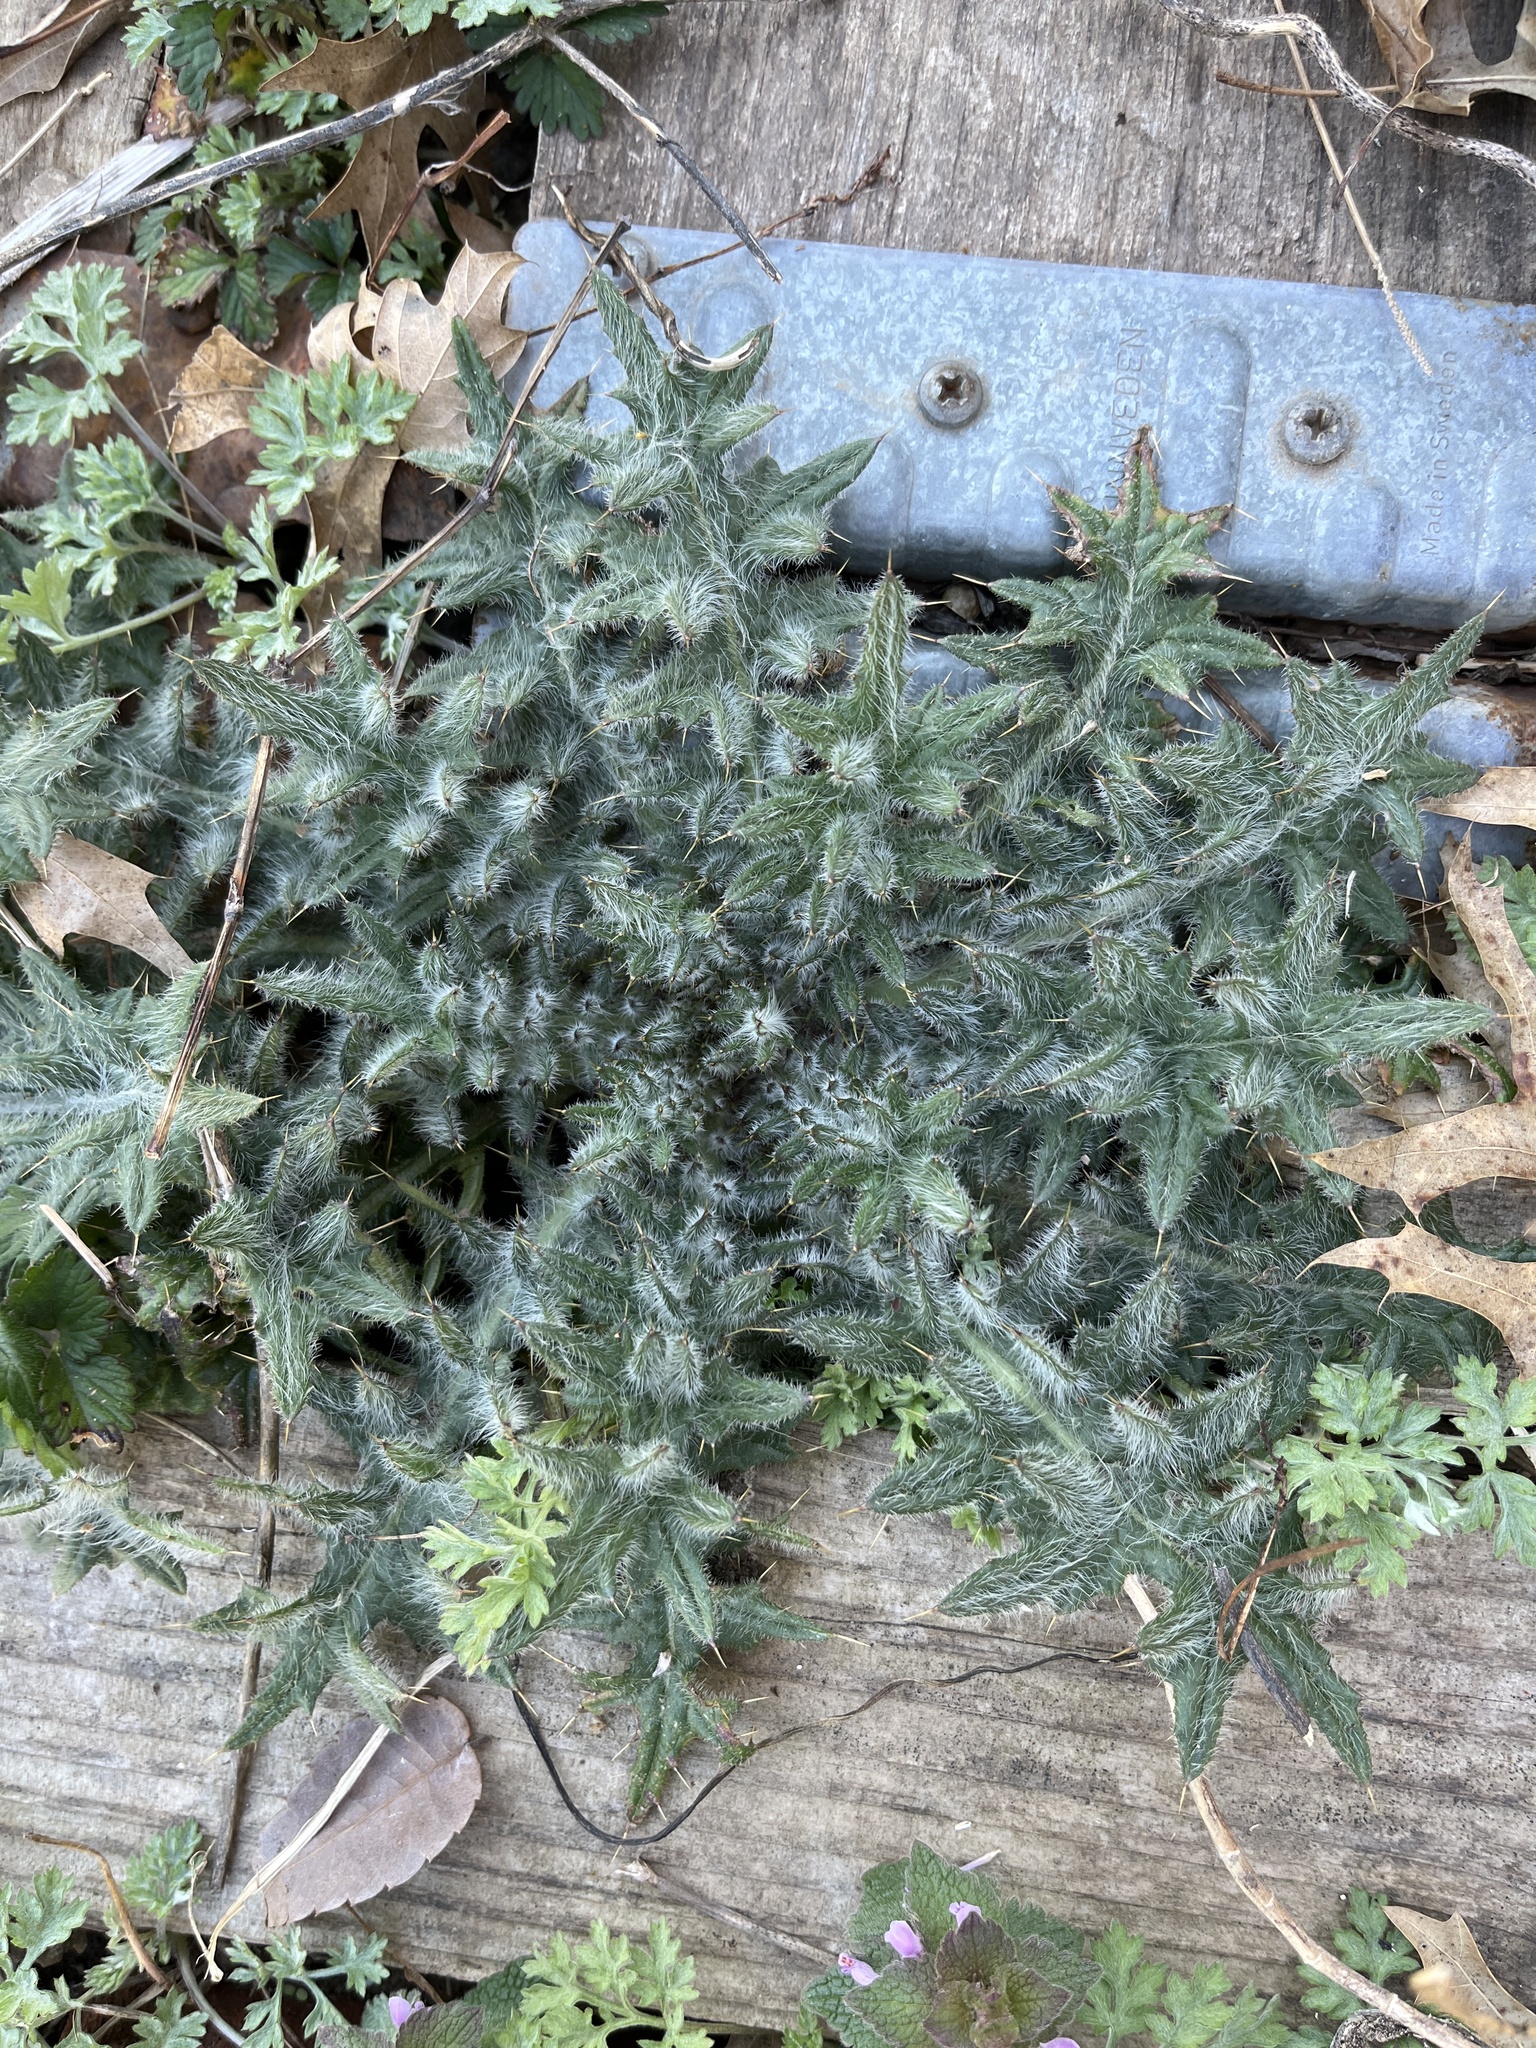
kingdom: Plantae
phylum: Tracheophyta
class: Magnoliopsida
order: Asterales
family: Asteraceae
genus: Cirsium
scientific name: Cirsium vulgare
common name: Bull thistle
